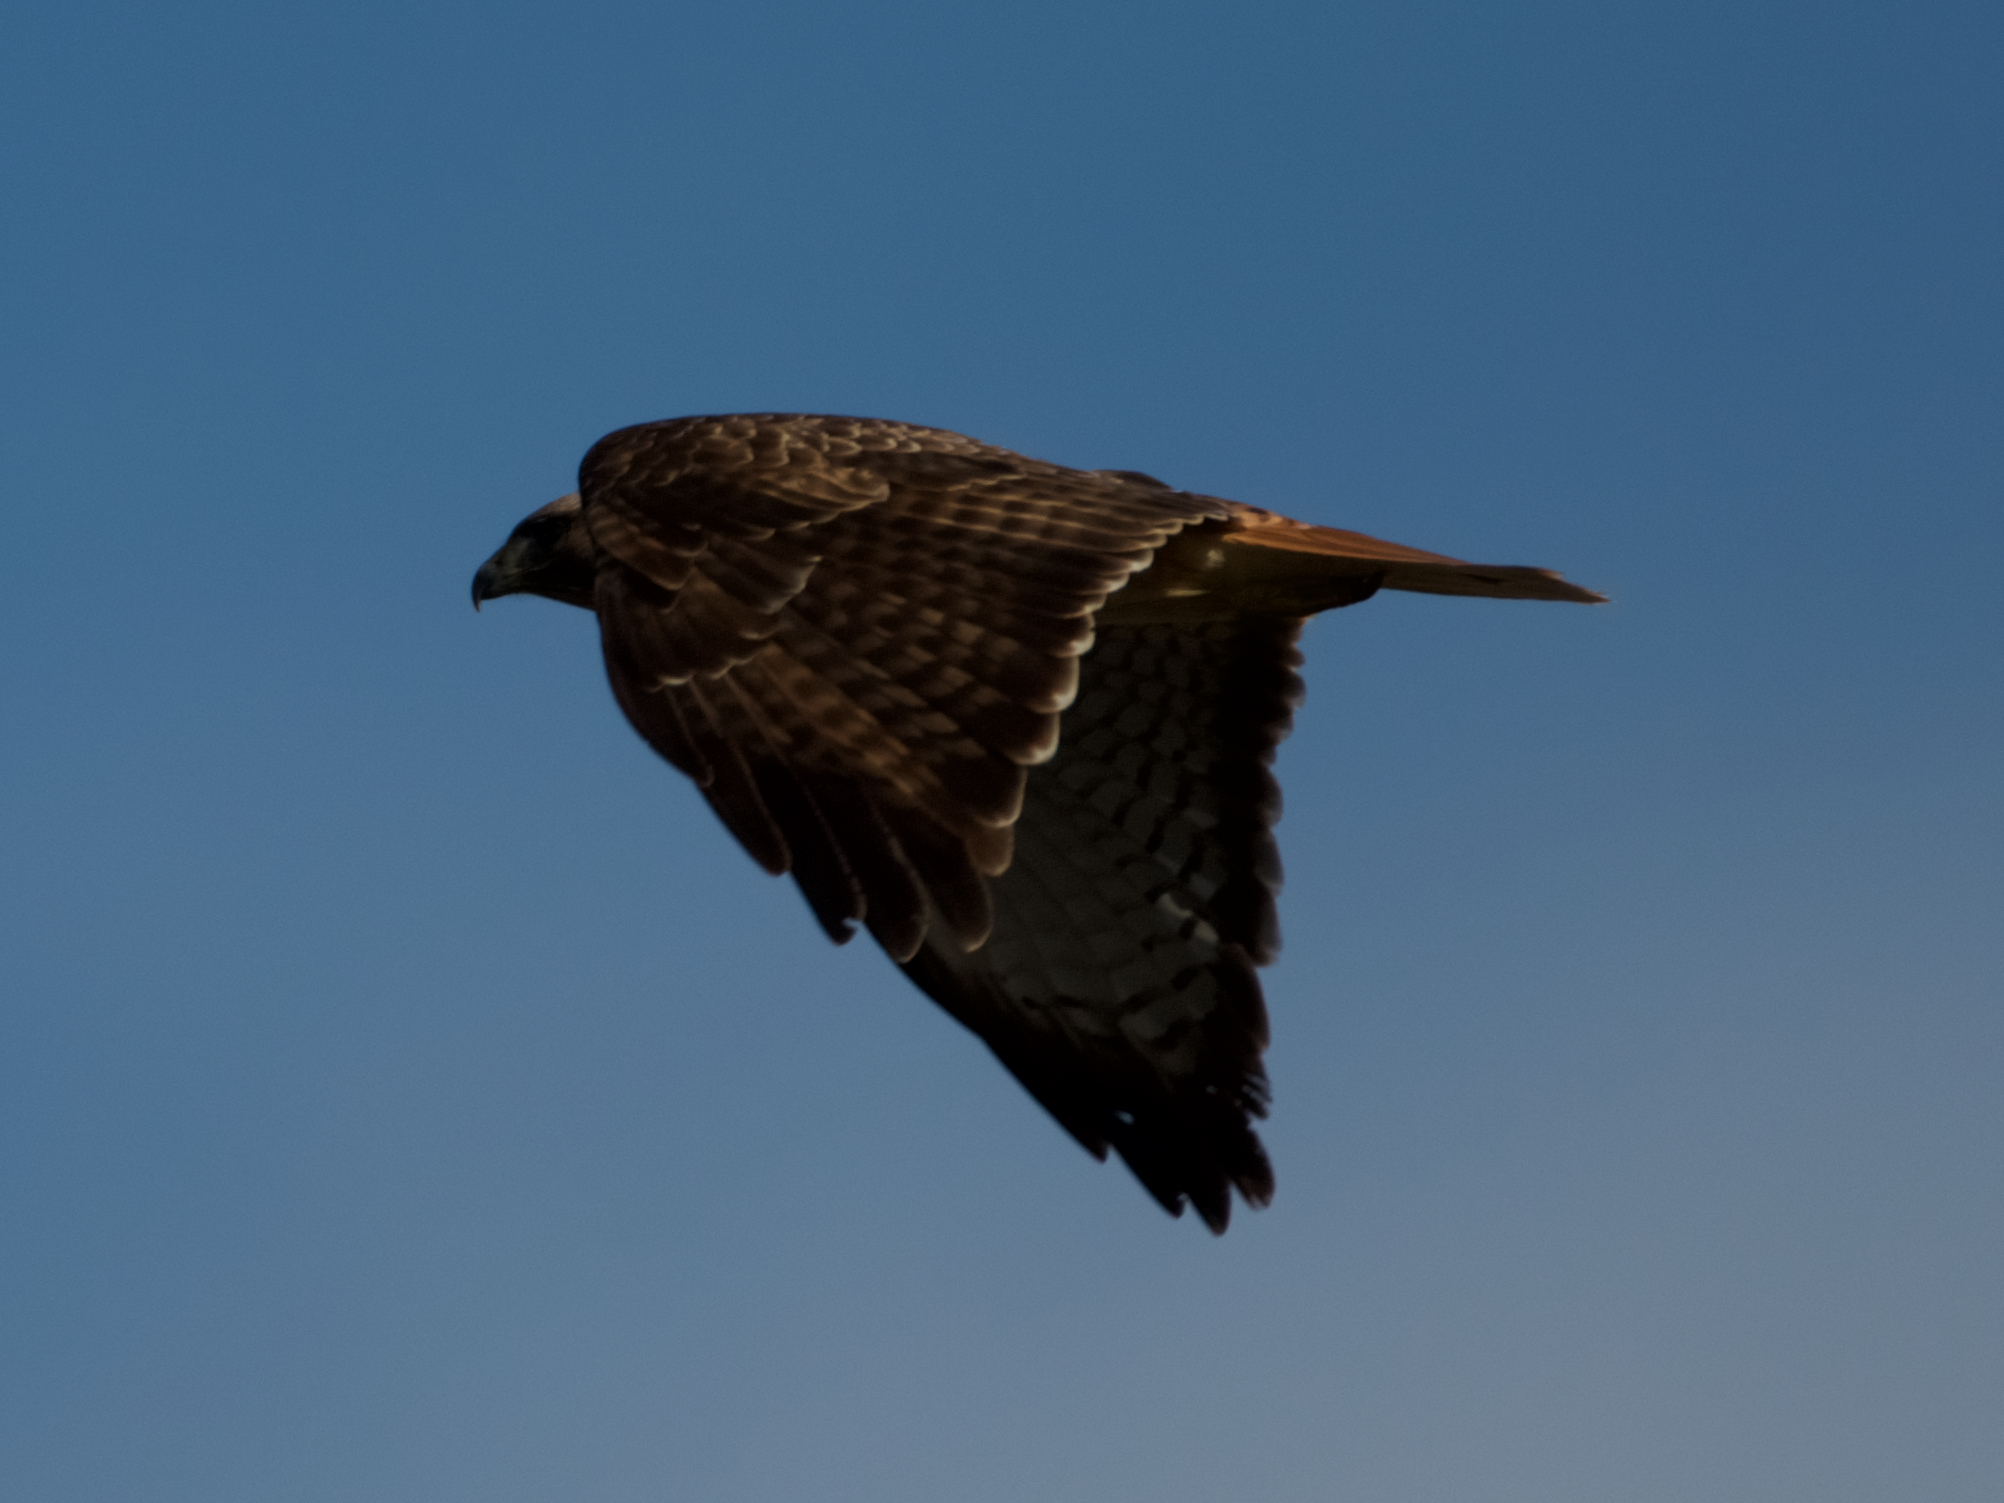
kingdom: Animalia
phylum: Chordata
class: Aves
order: Accipitriformes
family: Accipitridae
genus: Buteo
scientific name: Buteo jamaicensis
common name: Red-tailed hawk
